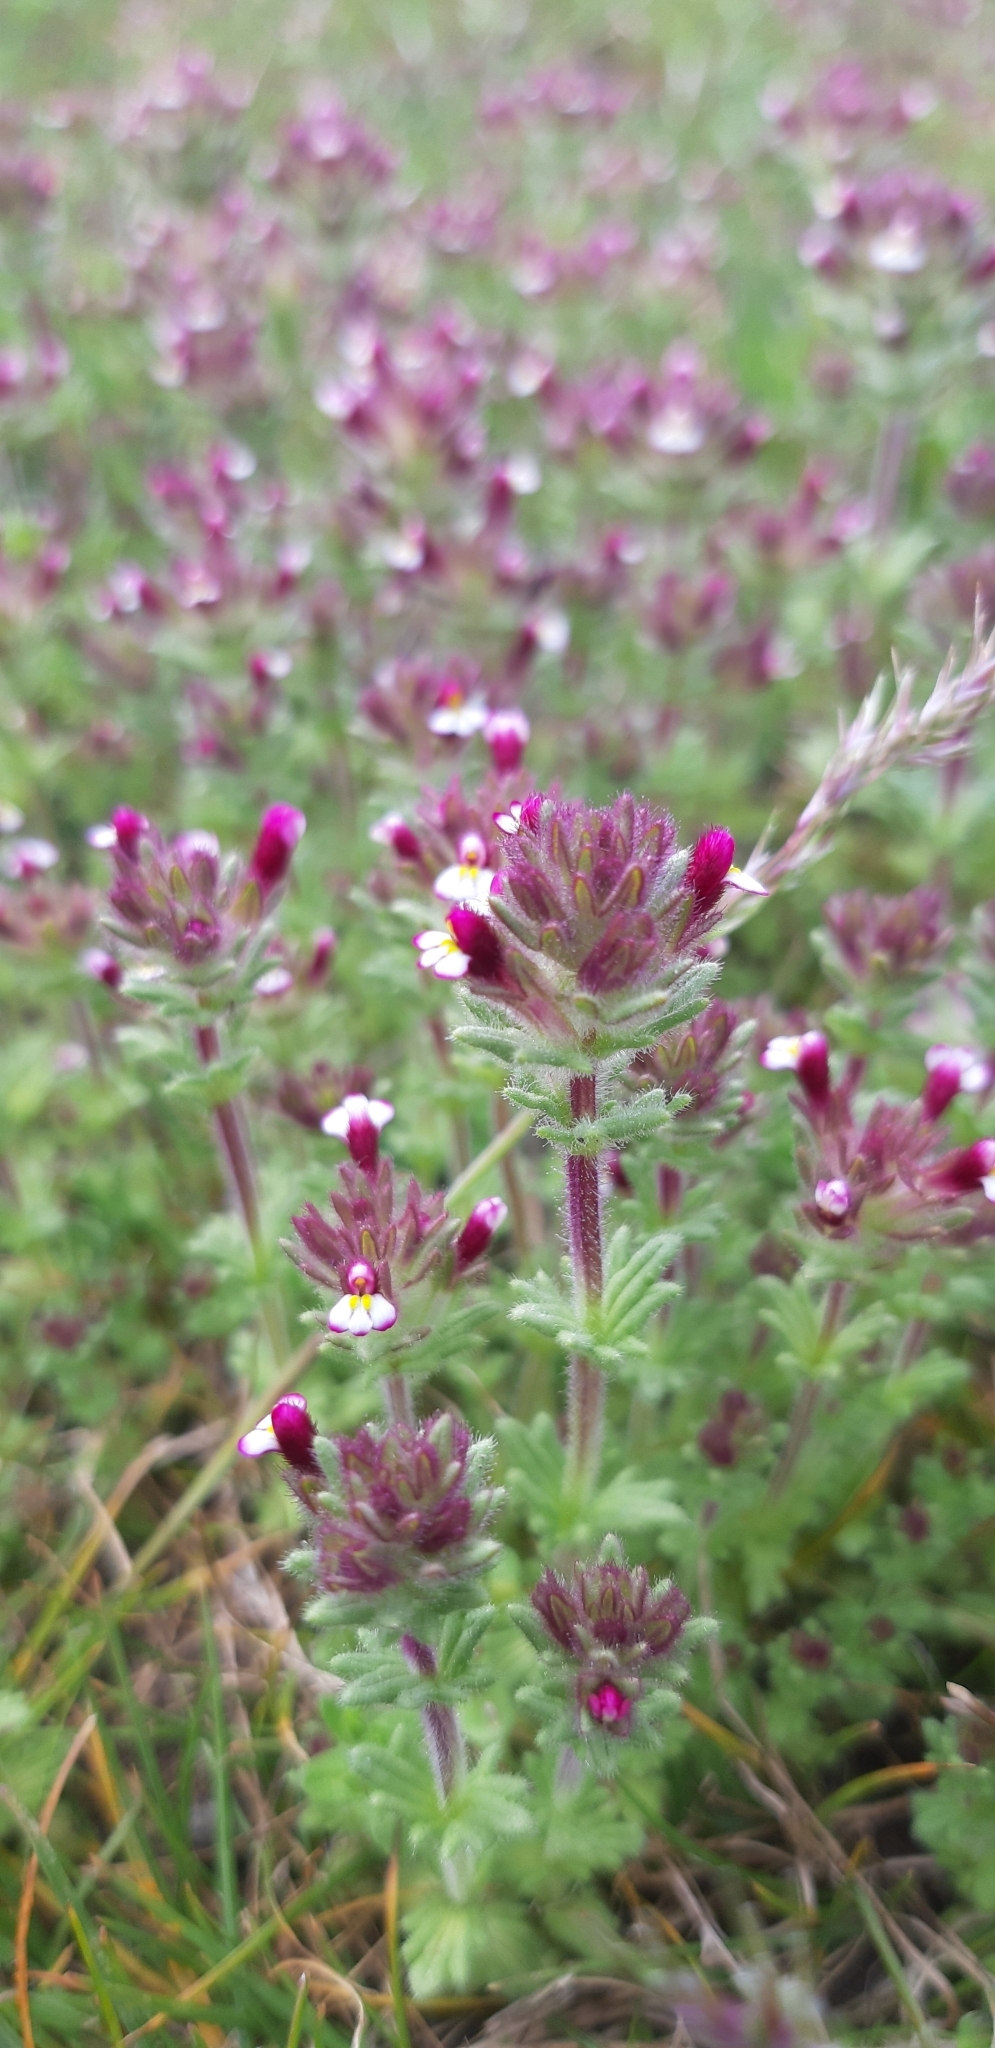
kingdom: Plantae
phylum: Tracheophyta
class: Magnoliopsida
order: Lamiales
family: Orobanchaceae
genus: Parentucellia
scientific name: Parentucellia latifolia
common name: Broadleaf glandweed
